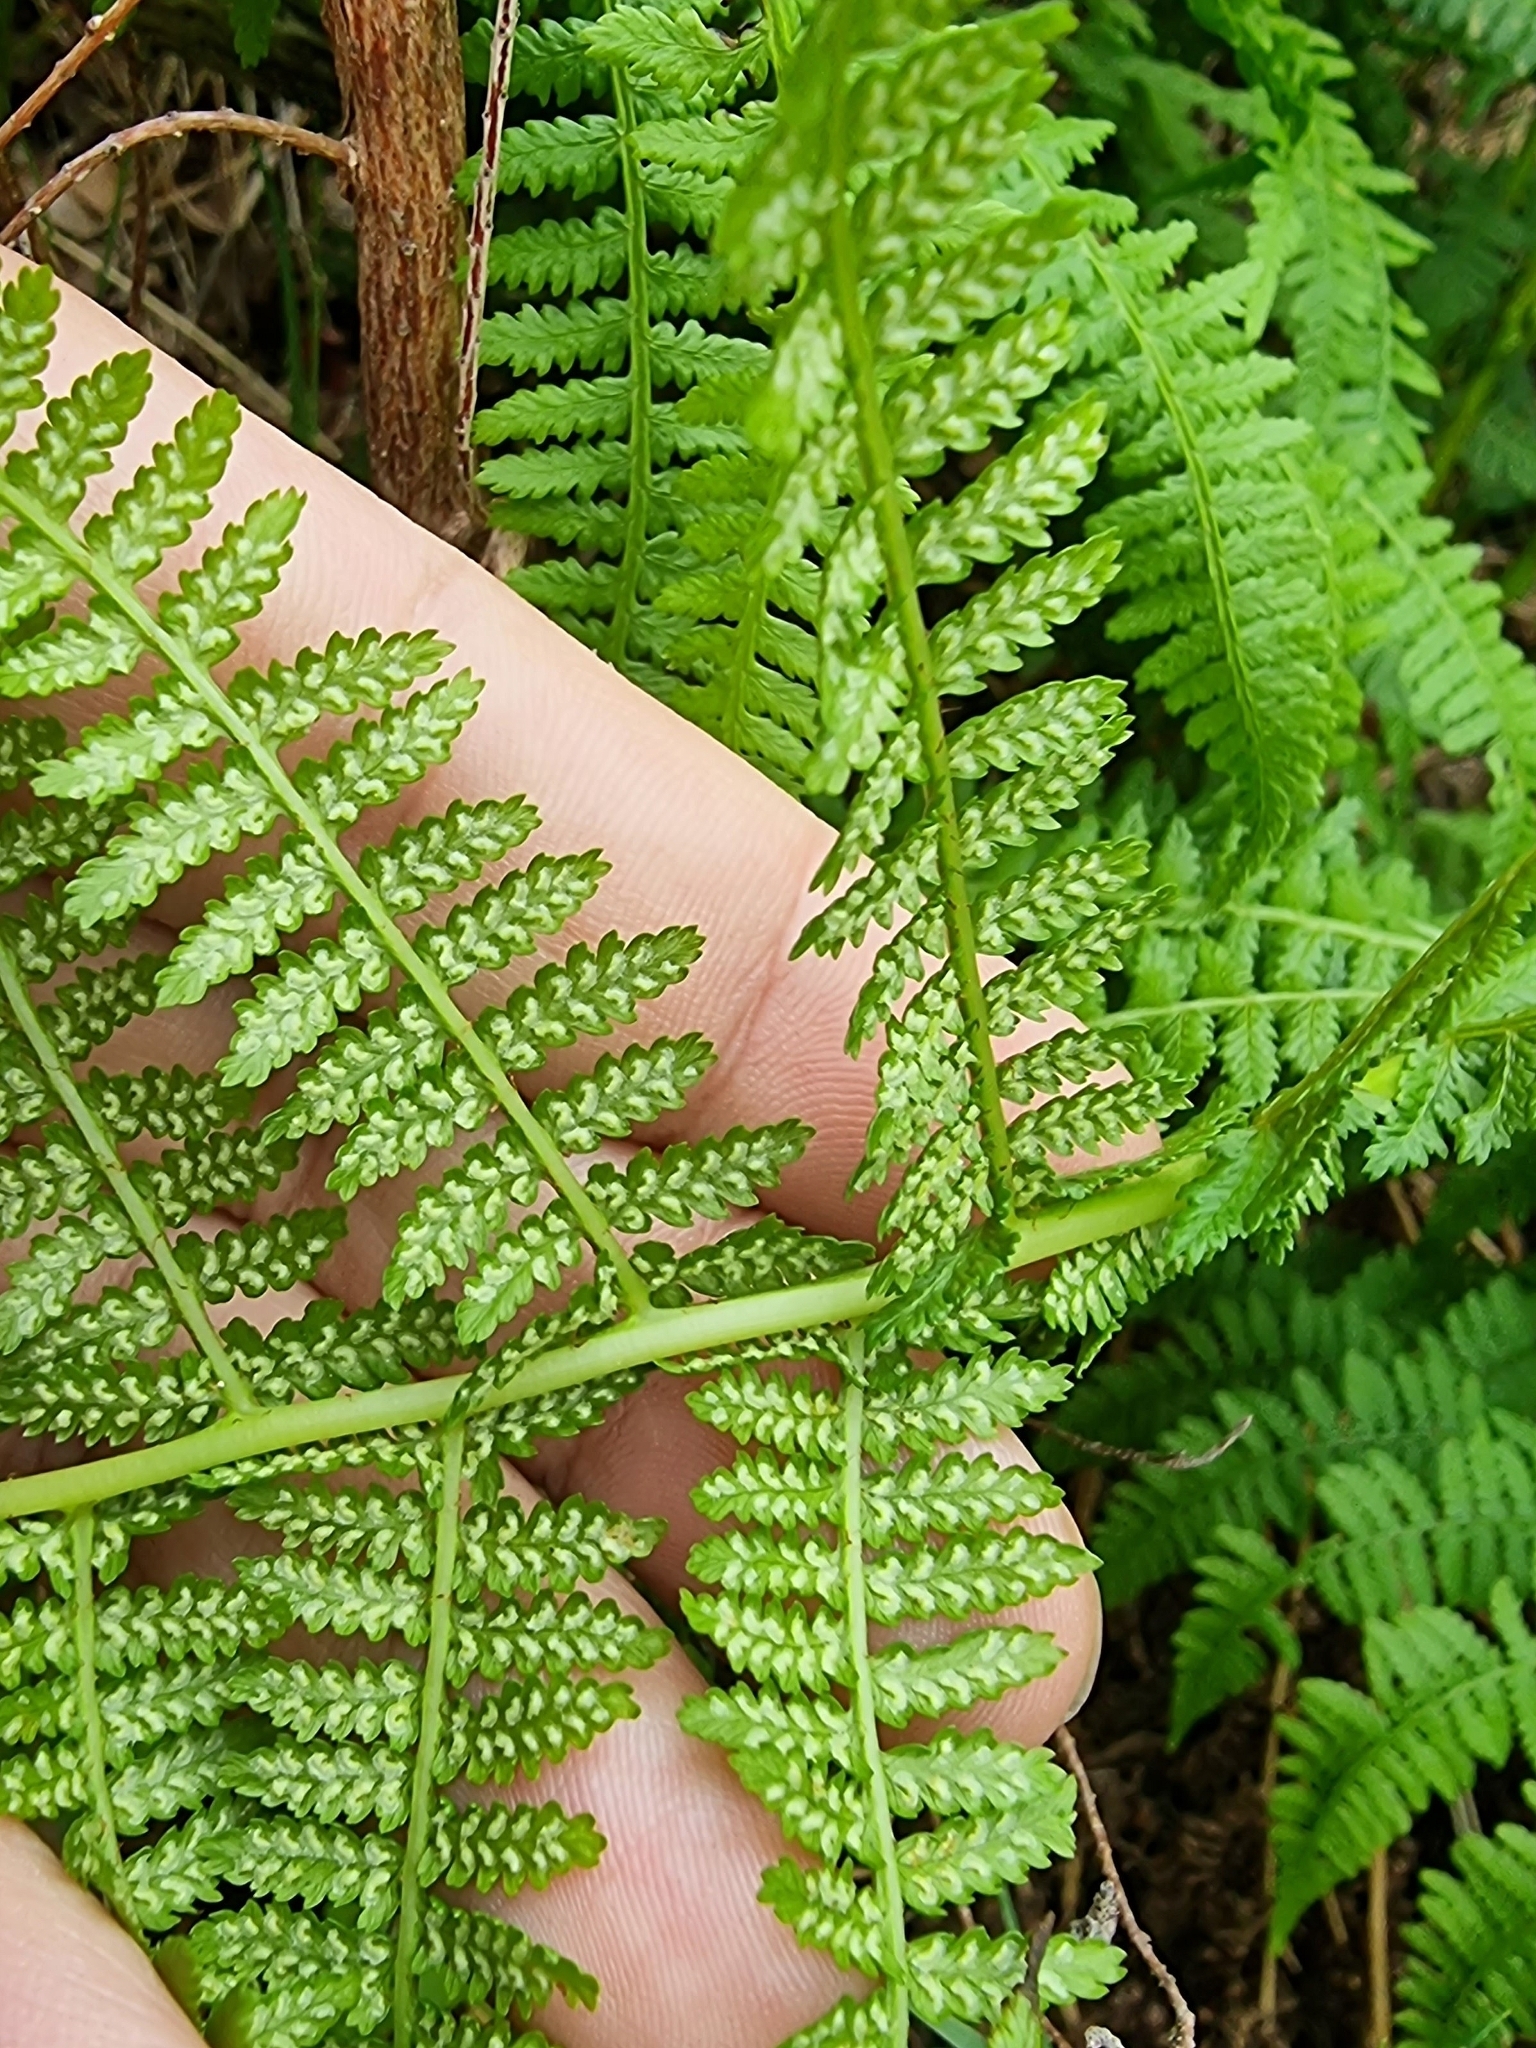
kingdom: Plantae
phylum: Tracheophyta
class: Polypodiopsida
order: Polypodiales
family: Athyriaceae
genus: Athyrium
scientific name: Athyrium filix-femina
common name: Lady fern
